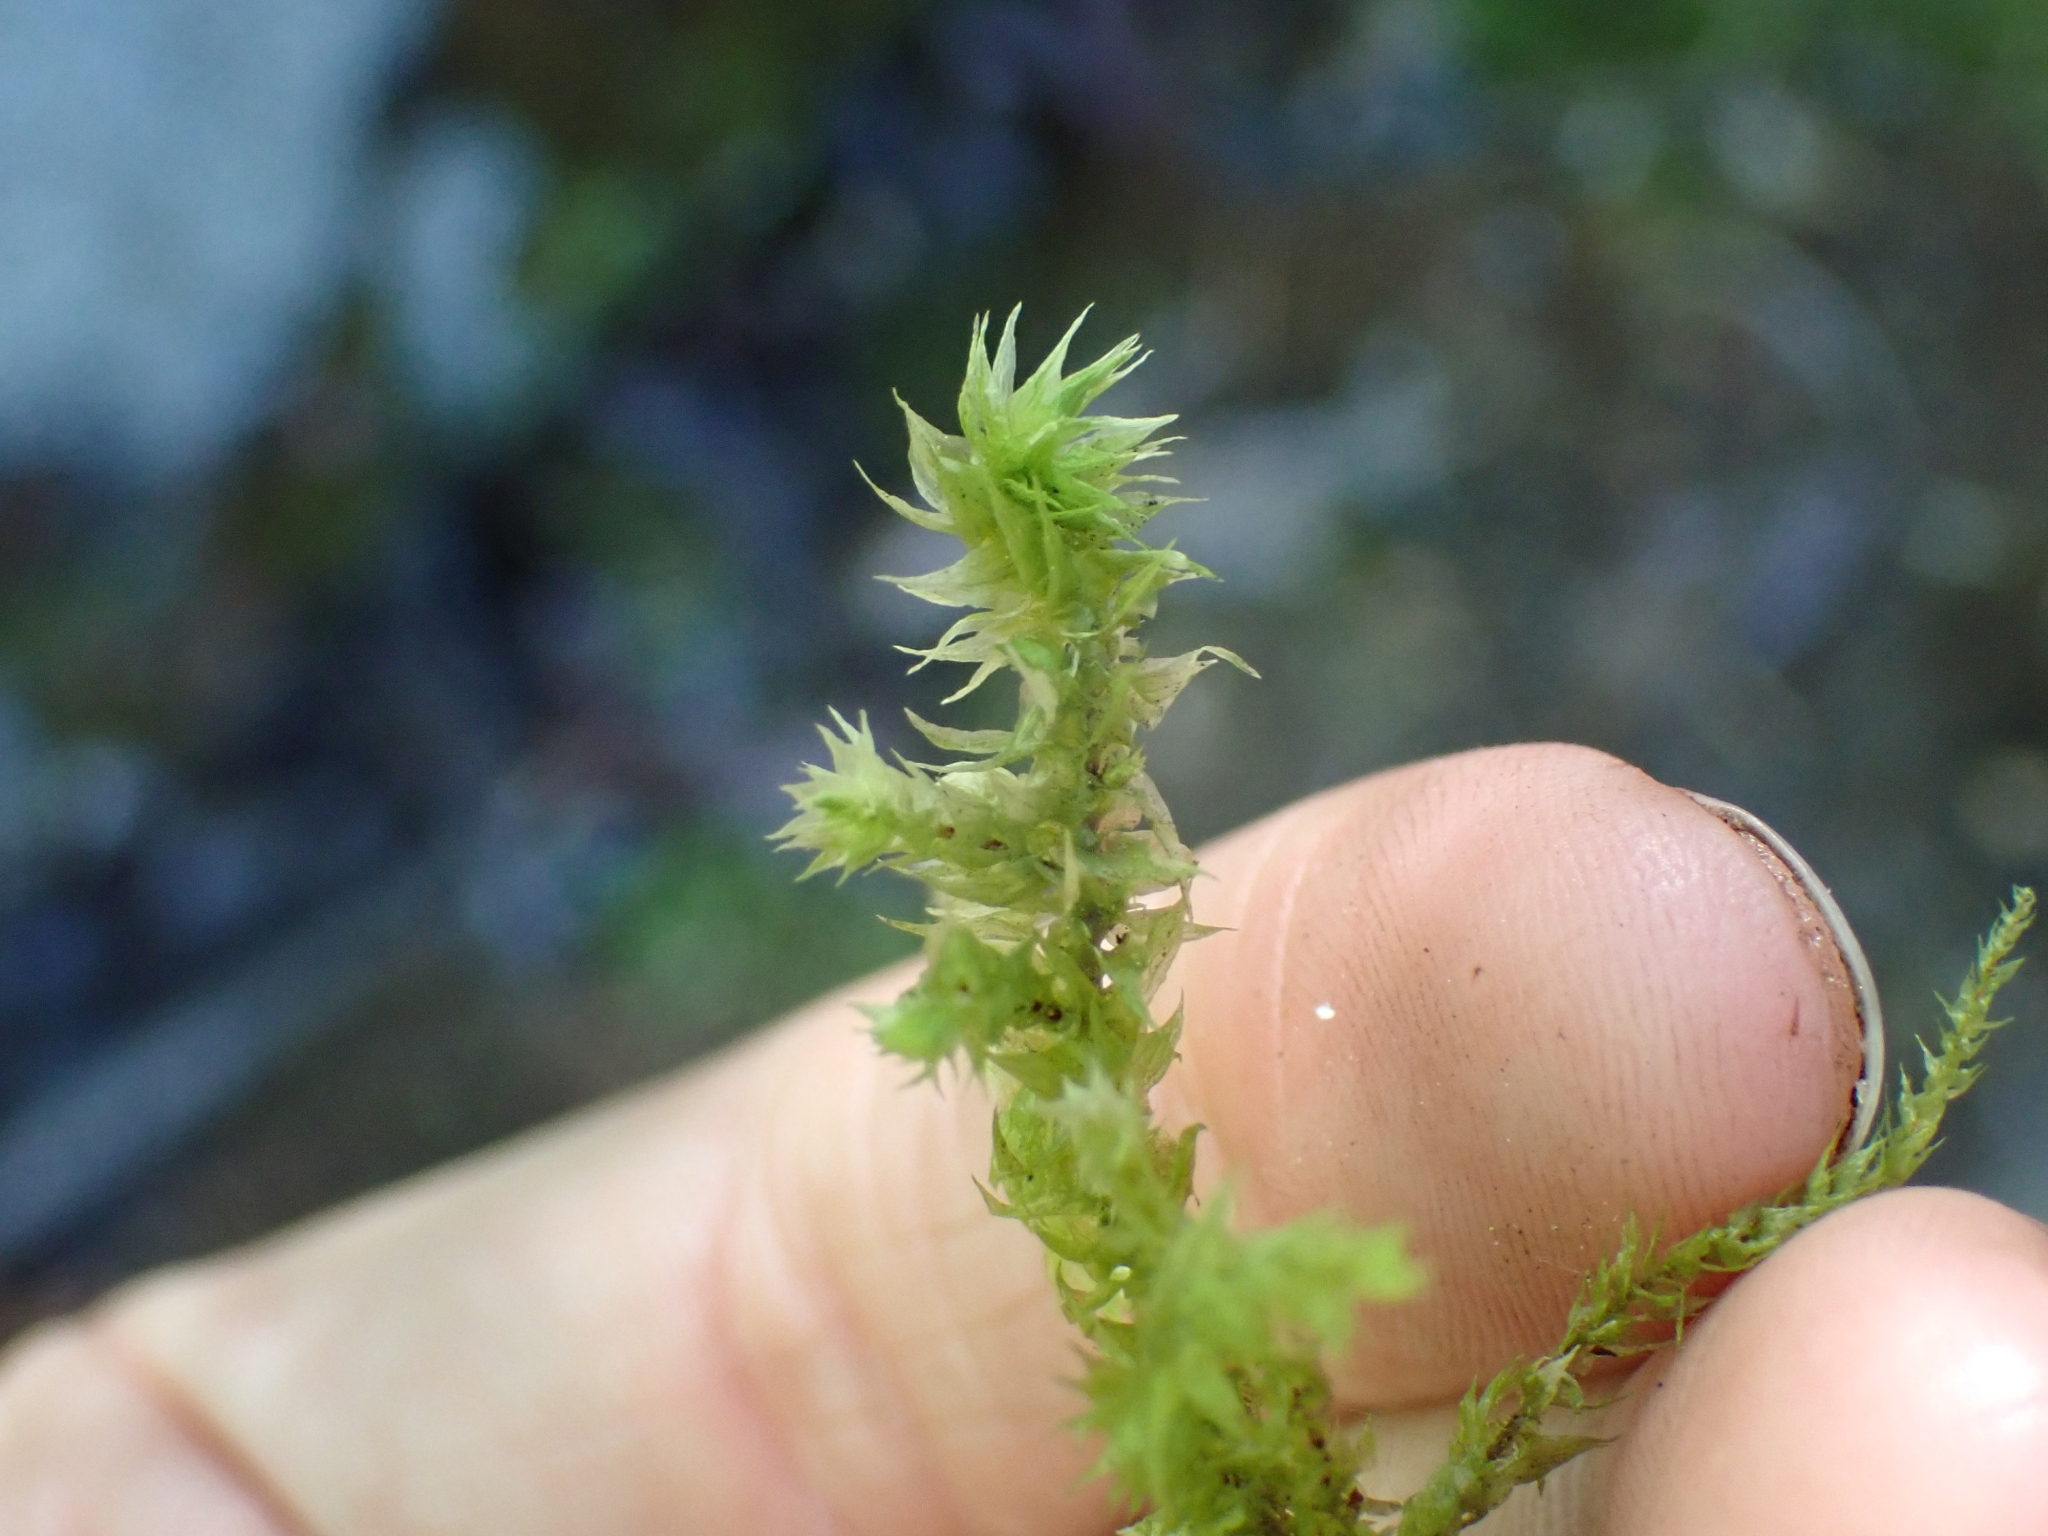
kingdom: Plantae
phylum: Bryophyta
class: Bryopsida
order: Hypnales
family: Hylocomiaceae
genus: Hylocomiadelphus
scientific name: Hylocomiadelphus triquetrus
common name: Rough goose neck moss
